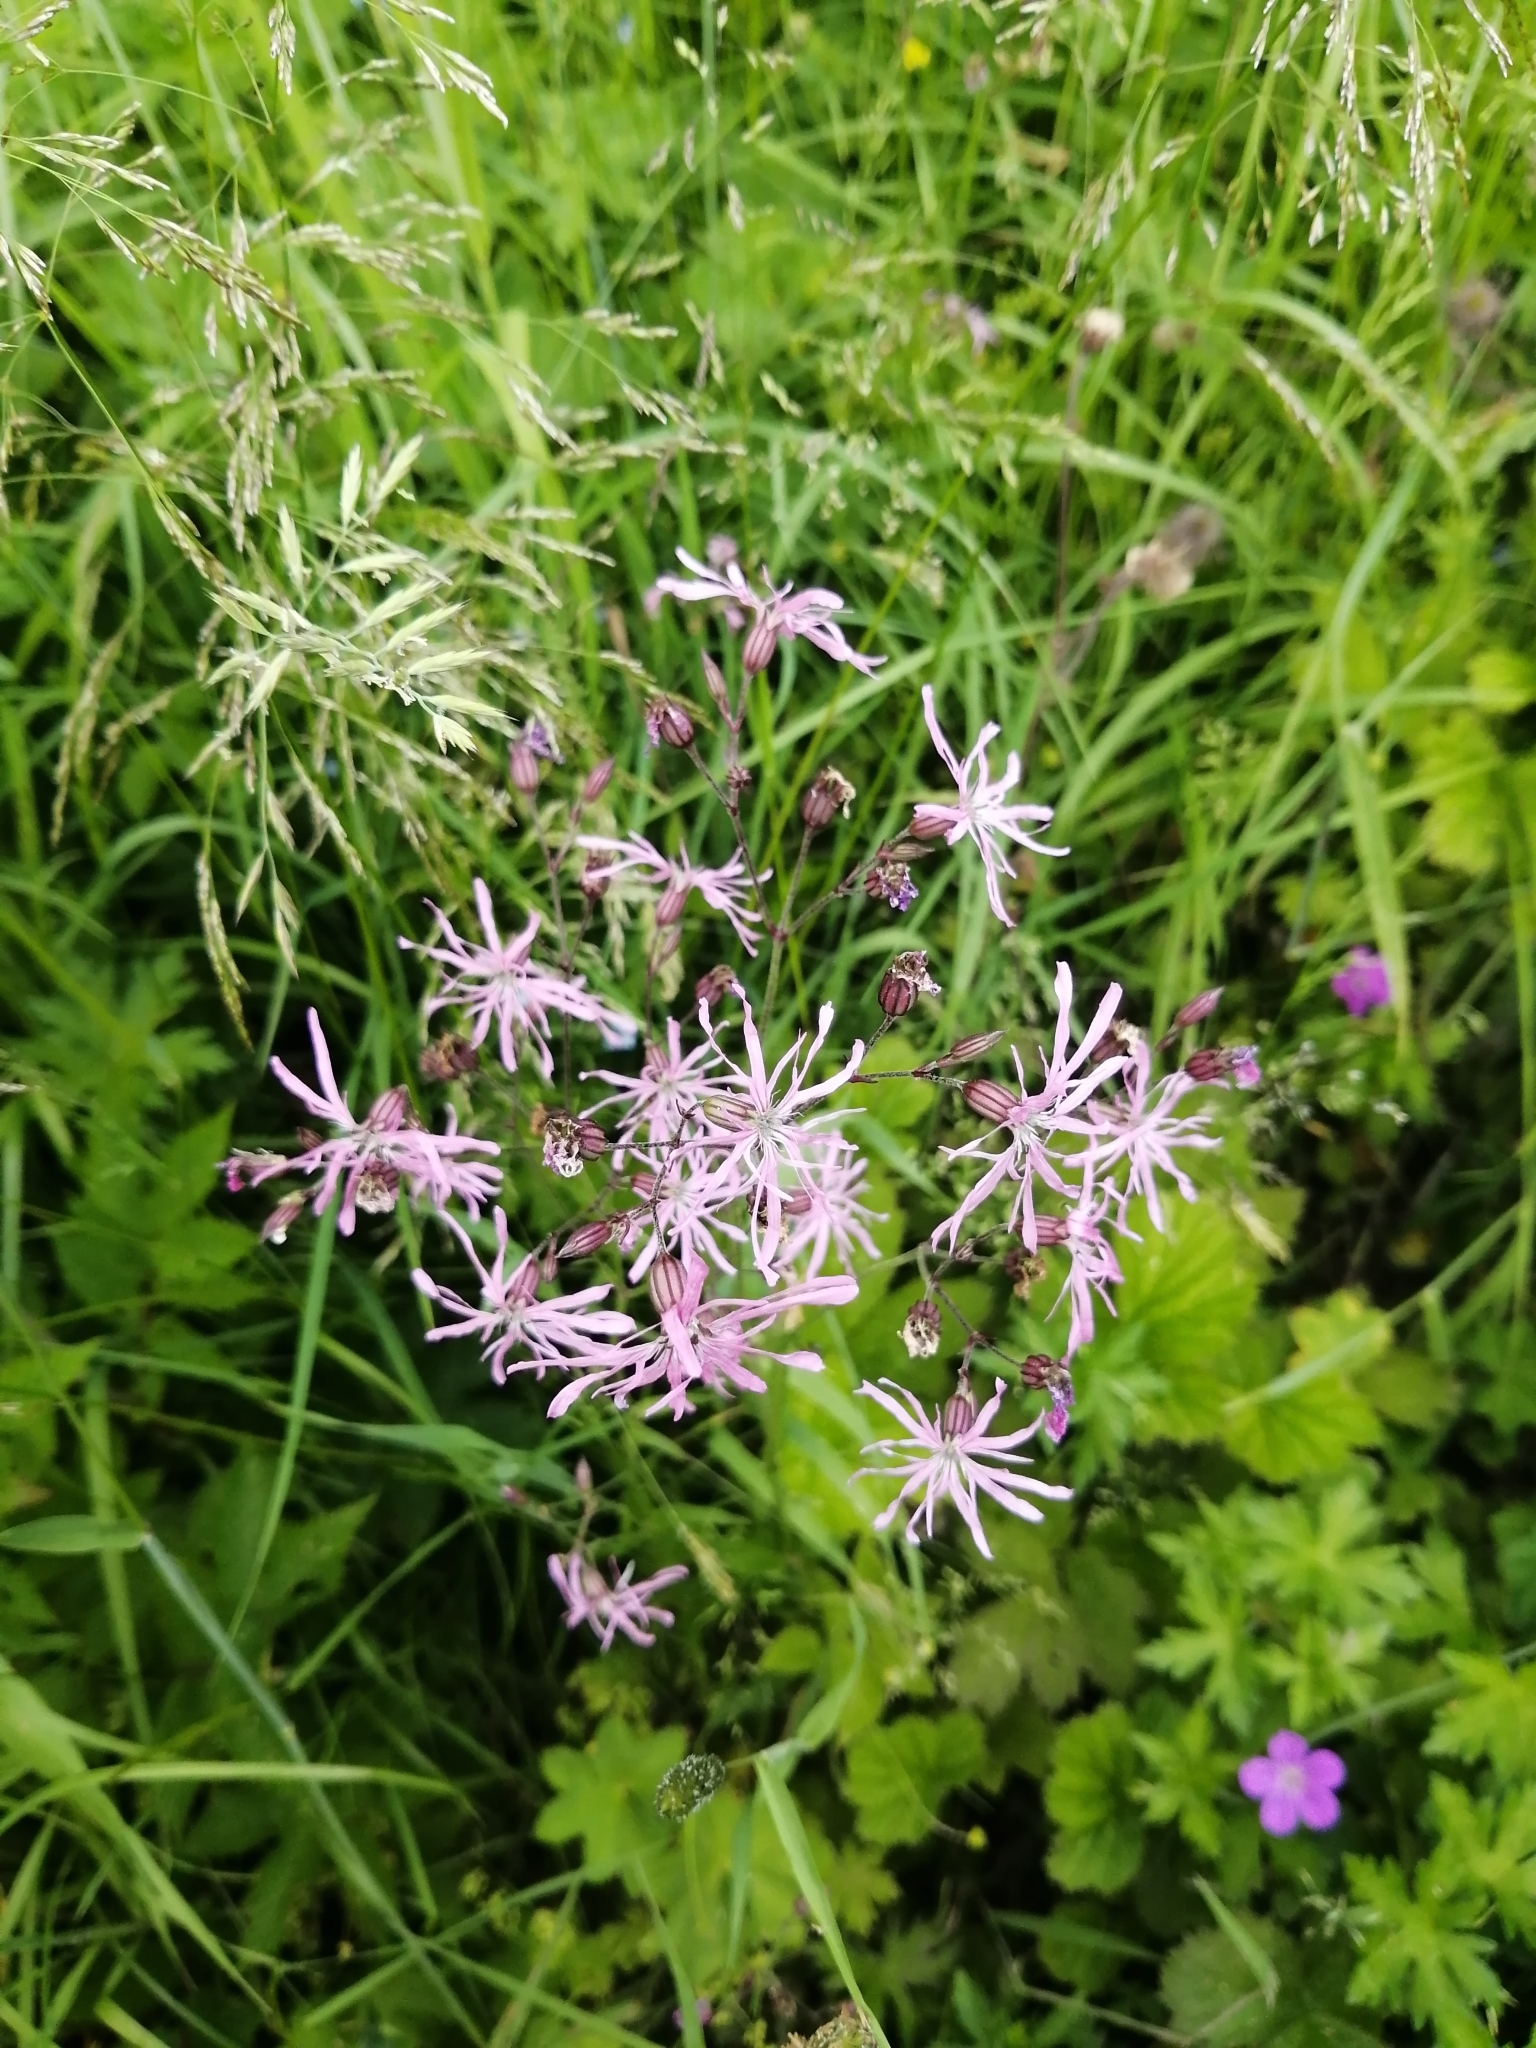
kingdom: Plantae
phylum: Tracheophyta
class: Magnoliopsida
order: Caryophyllales
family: Caryophyllaceae
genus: Silene
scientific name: Silene flos-cuculi
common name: Ragged-robin
